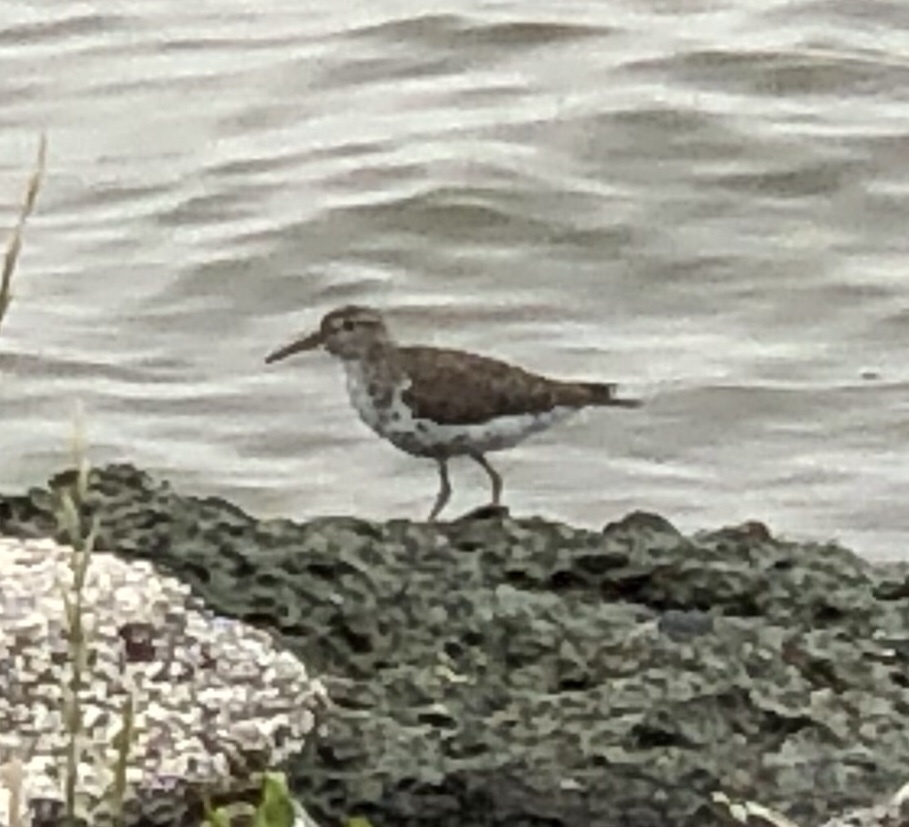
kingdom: Animalia
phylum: Chordata
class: Aves
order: Charadriiformes
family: Scolopacidae
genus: Actitis
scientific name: Actitis macularius
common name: Spotted sandpiper
